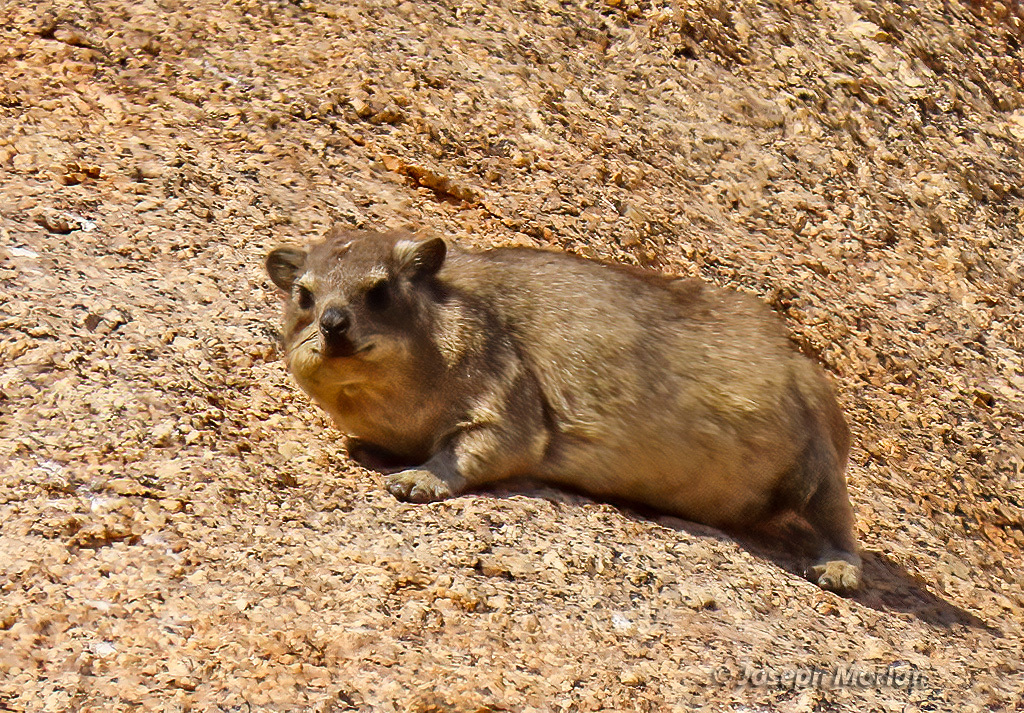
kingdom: Animalia
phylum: Chordata
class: Mammalia
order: Hyracoidea
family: Procaviidae
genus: Procavia
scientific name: Procavia capensis
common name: Rock hyrax
